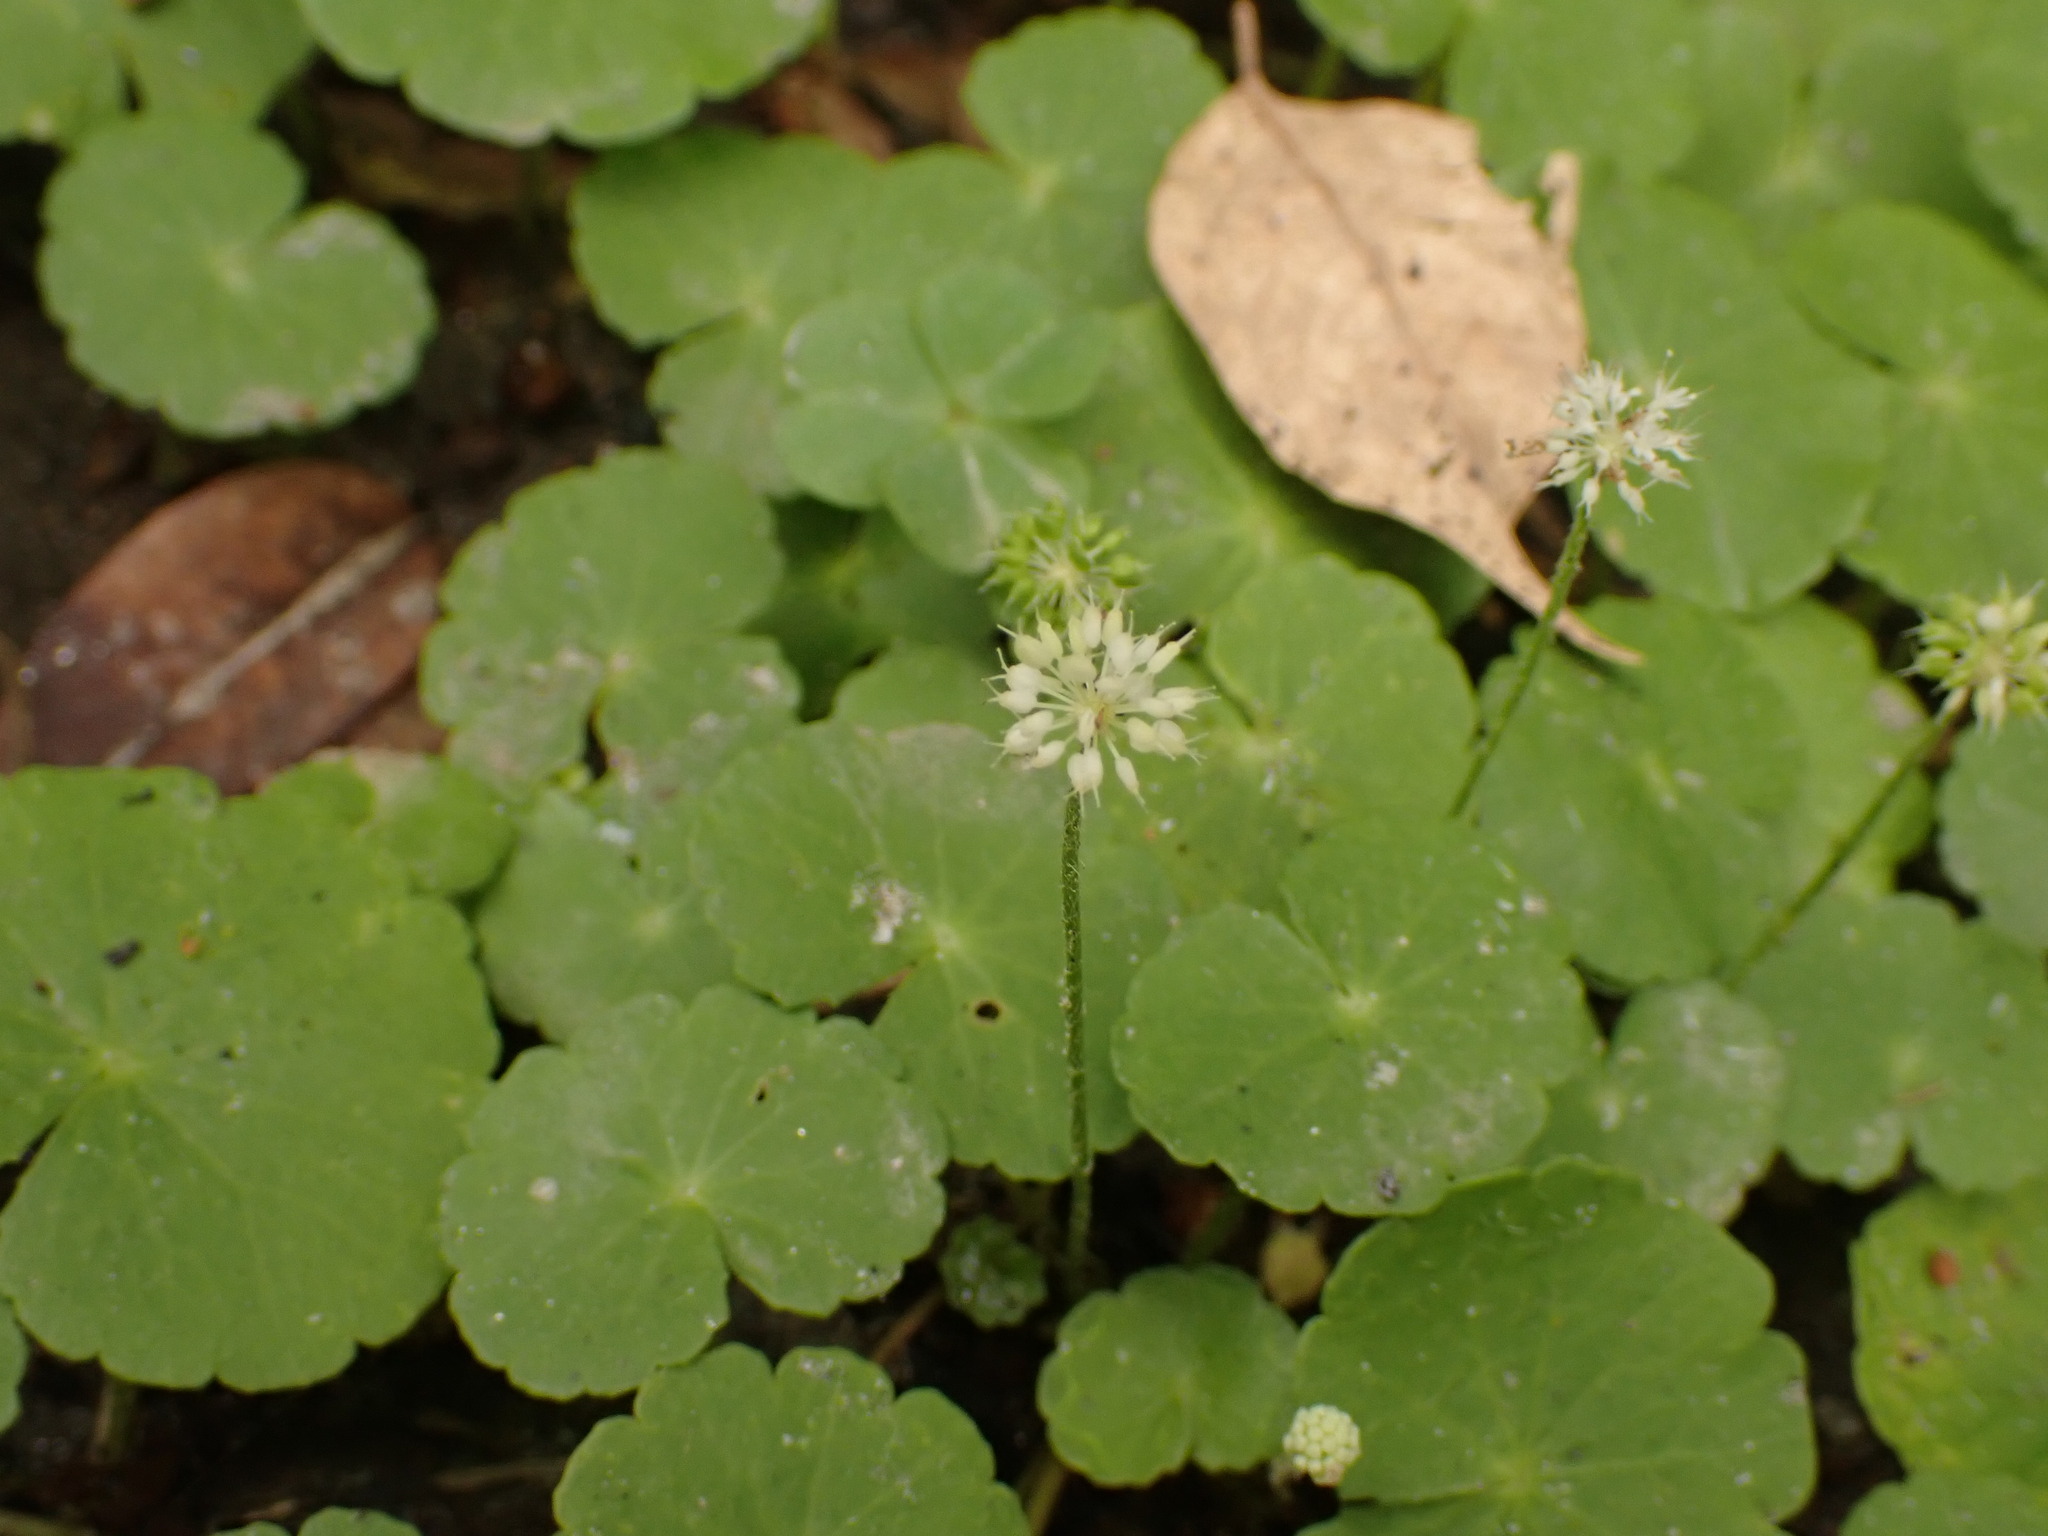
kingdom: Plantae
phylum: Tracheophyta
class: Magnoliopsida
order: Apiales
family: Araliaceae
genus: Hydrocotyle
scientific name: Hydrocotyle leucocephala
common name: Brazilian pennywort
